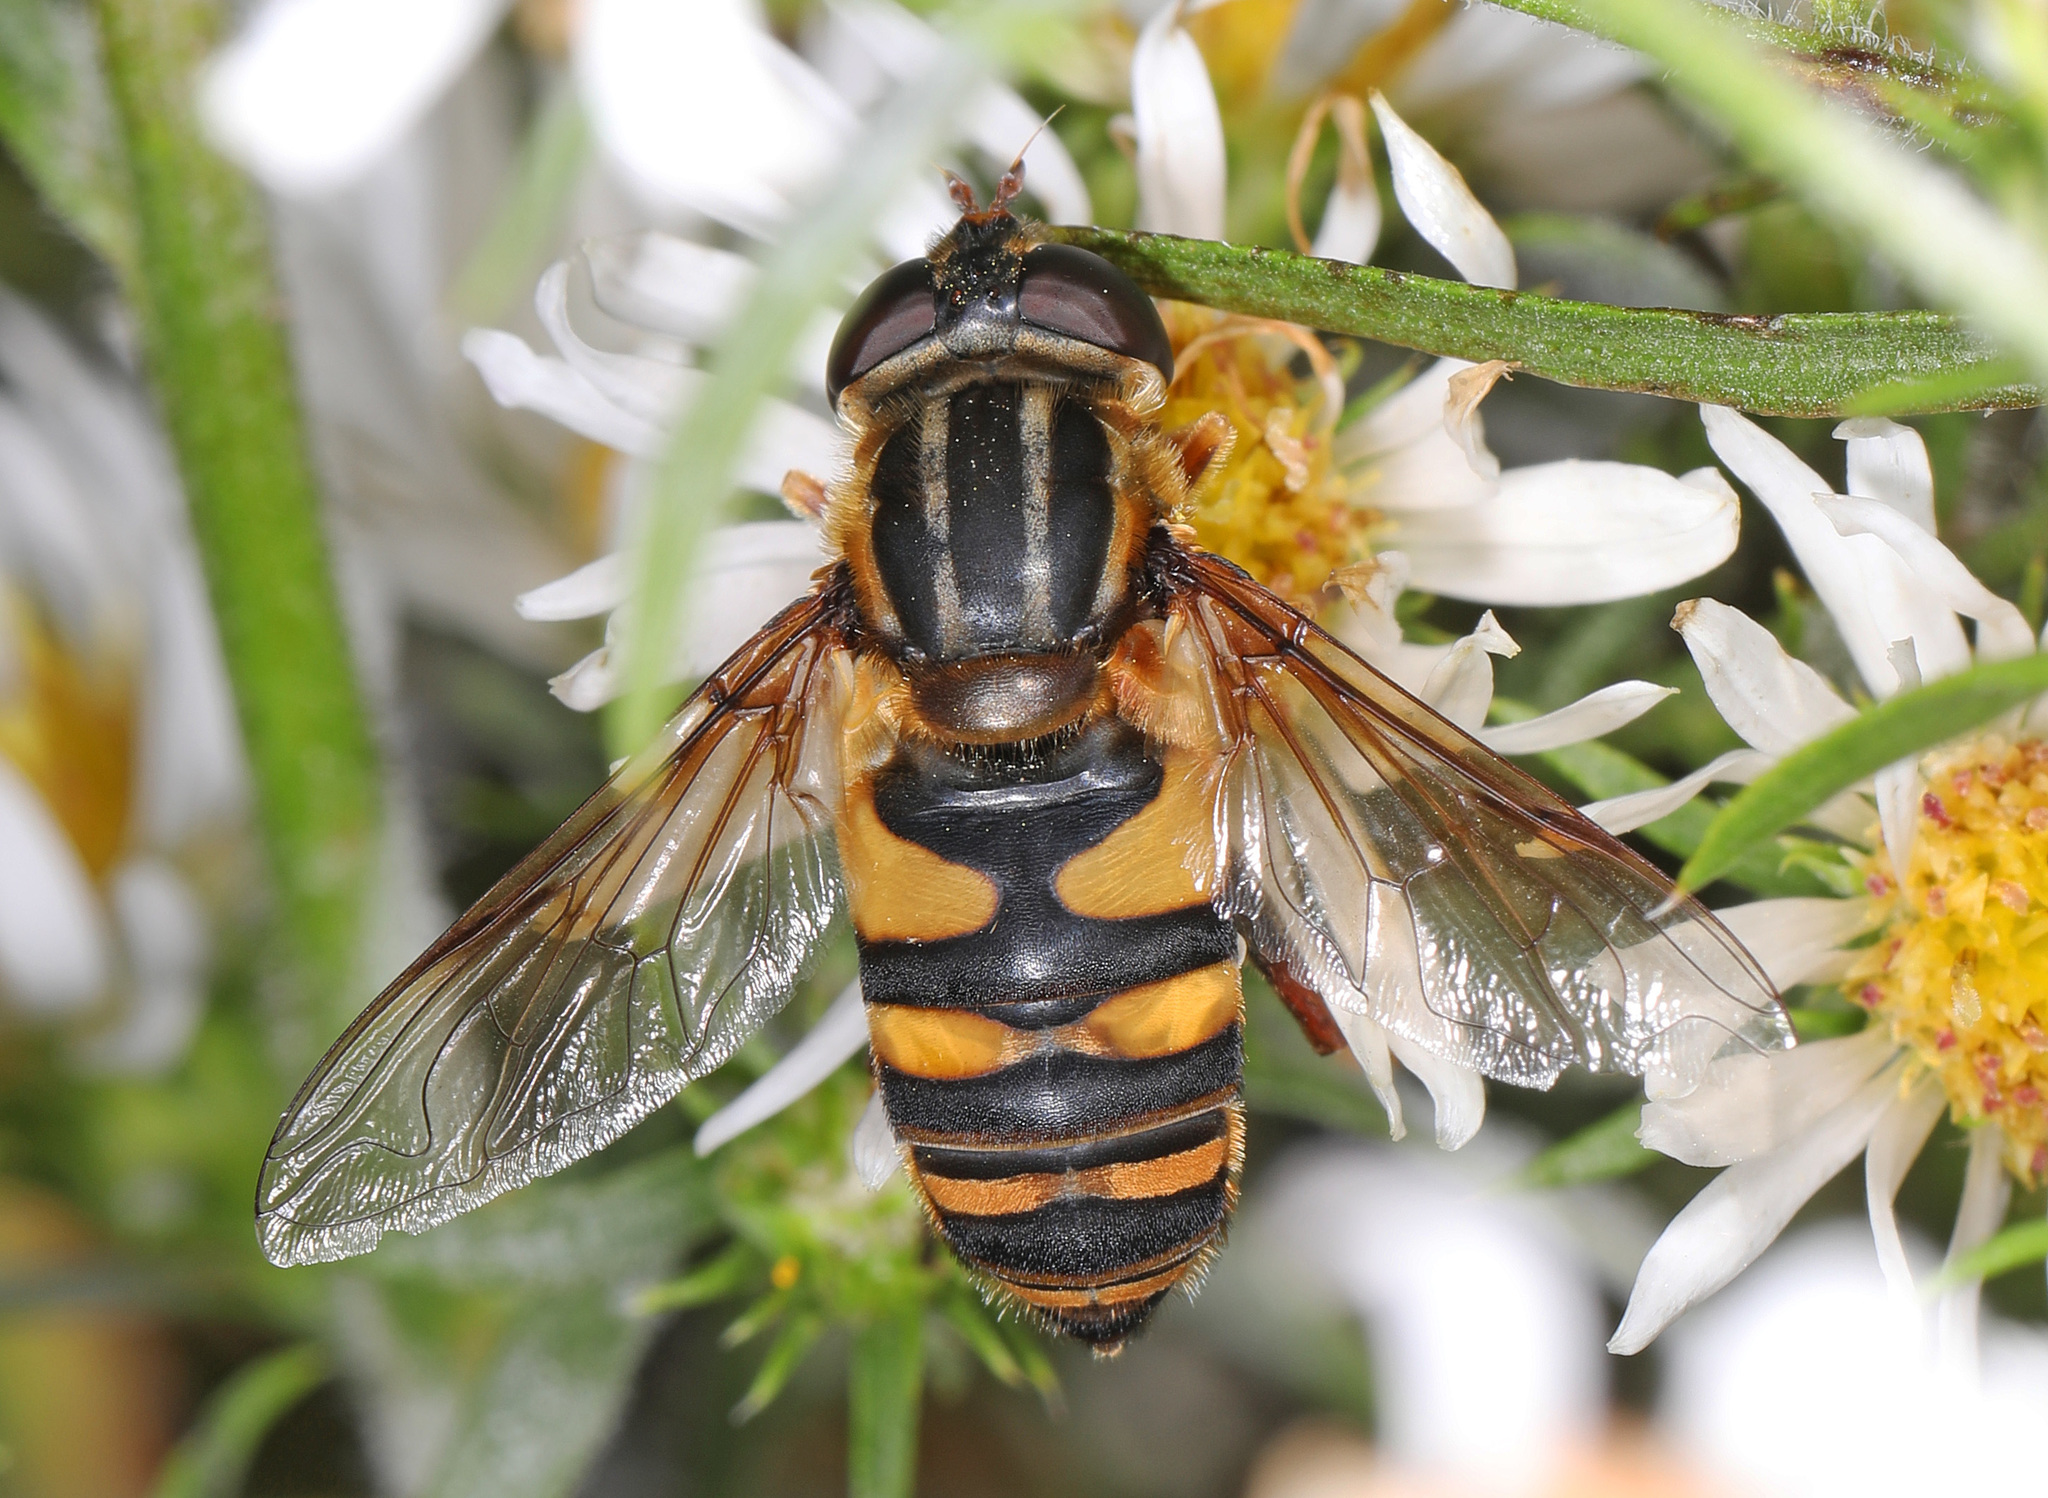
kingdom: Animalia
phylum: Arthropoda
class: Insecta
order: Diptera
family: Syrphidae
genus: Helophilus
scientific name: Helophilus fasciatus
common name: Narrow-headed marsh fly
